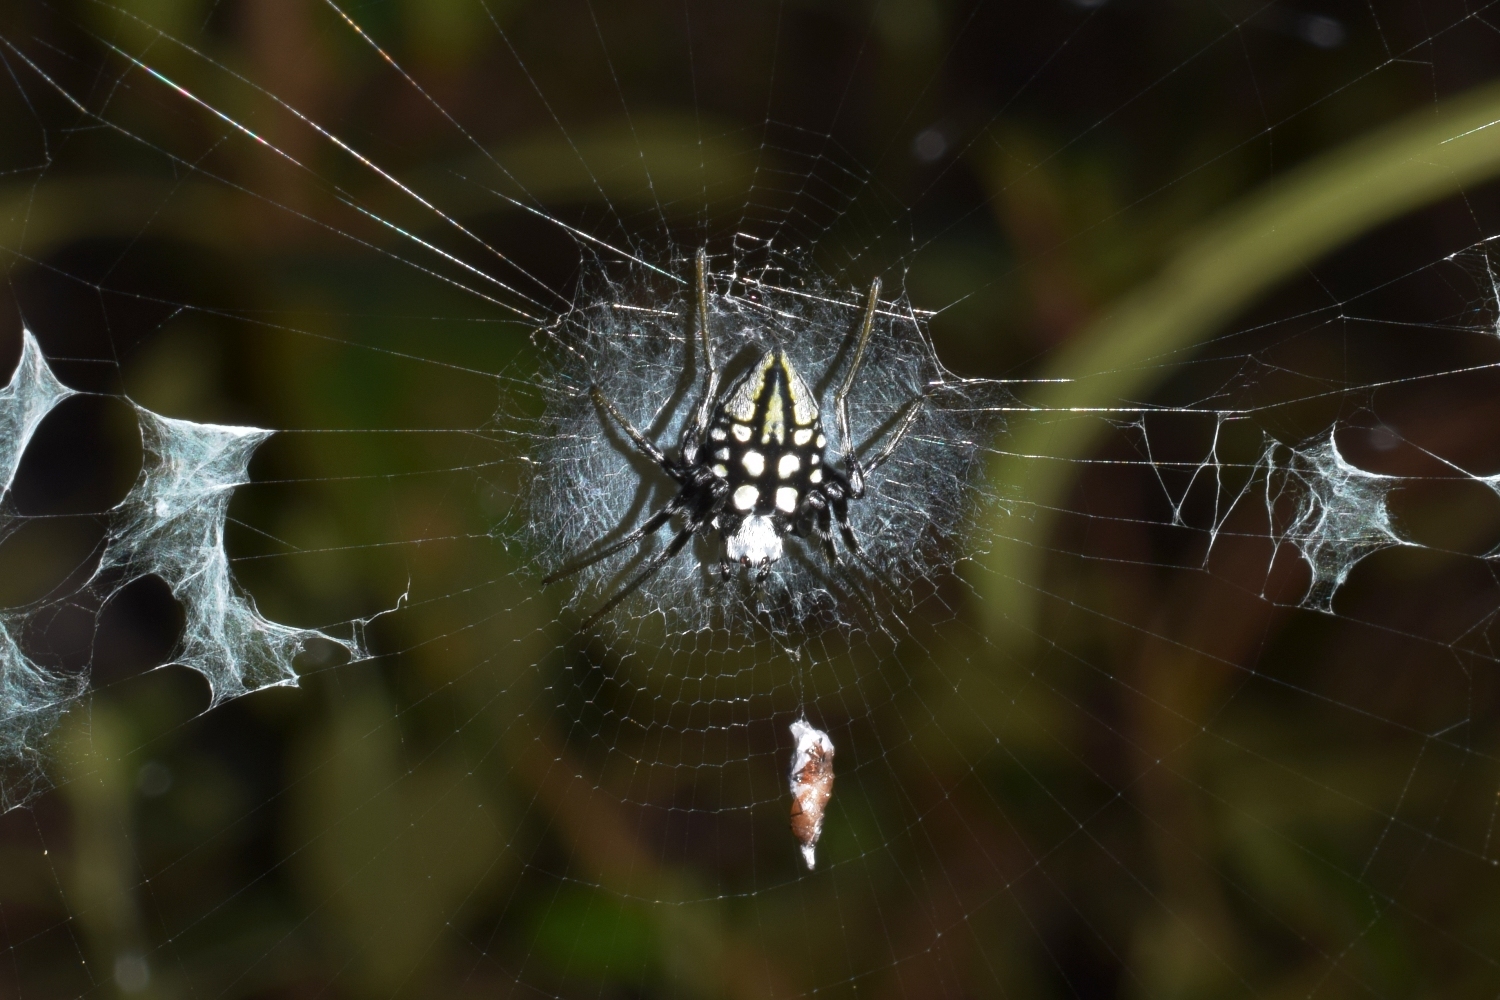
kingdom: Animalia
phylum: Arthropoda
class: Arachnida
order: Araneae
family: Araneidae
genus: Neogea
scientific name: Neogea nocticolor
